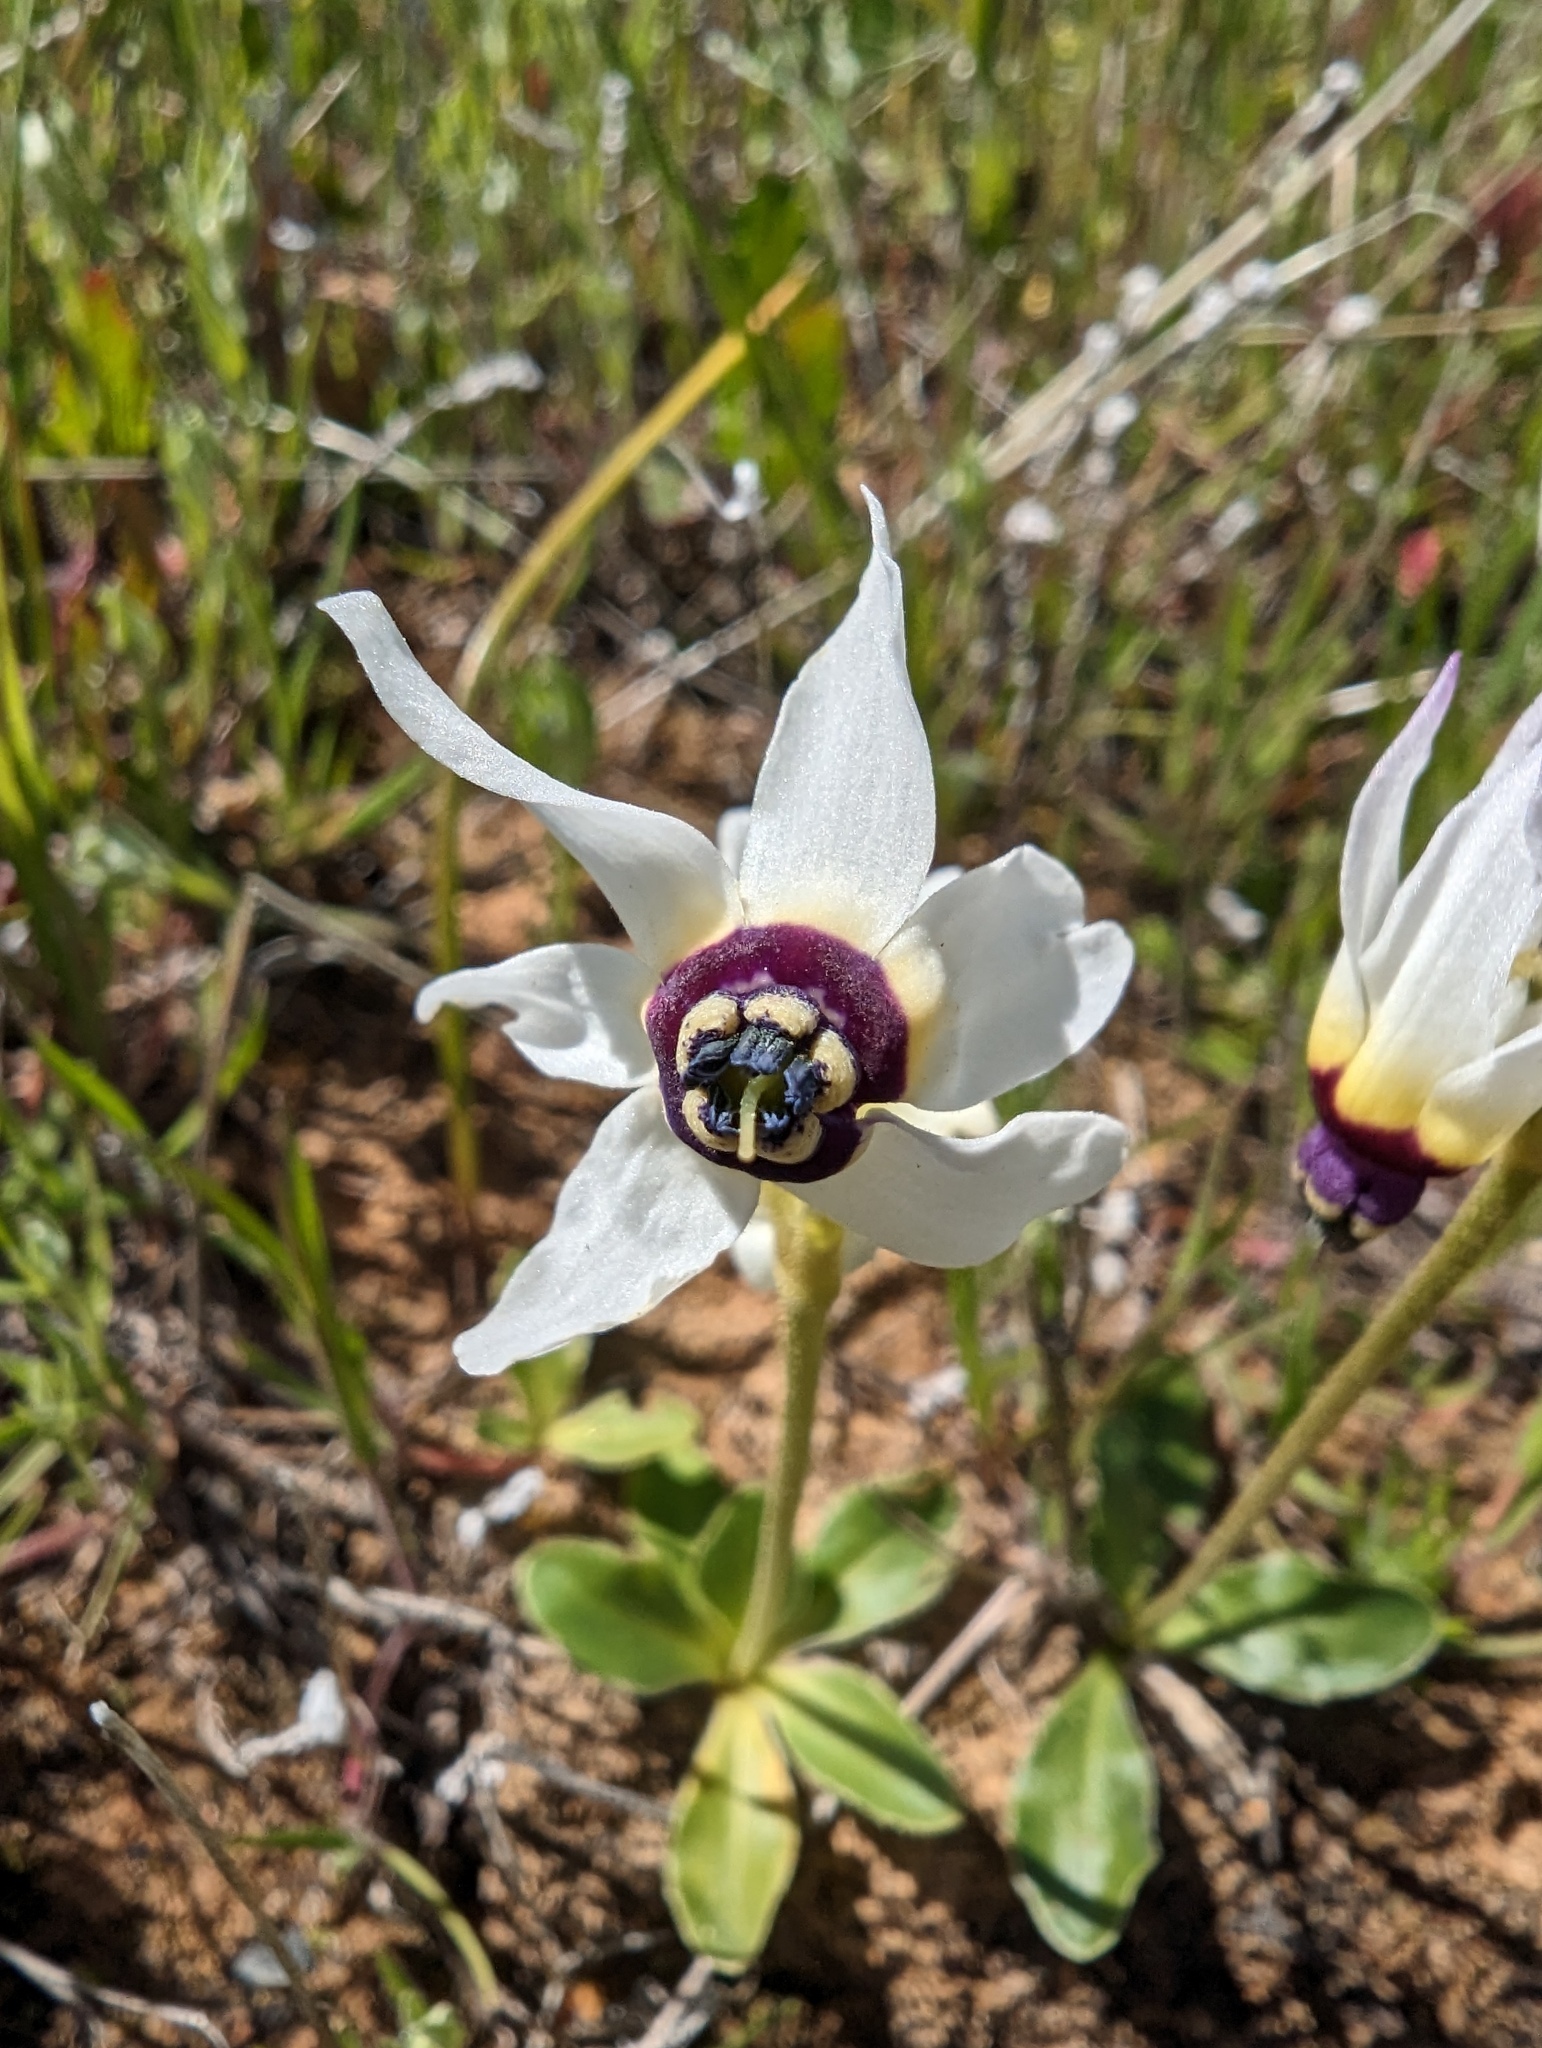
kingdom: Plantae
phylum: Tracheophyta
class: Magnoliopsida
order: Ericales
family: Primulaceae
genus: Dodecatheon
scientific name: Dodecatheon clevelandii
